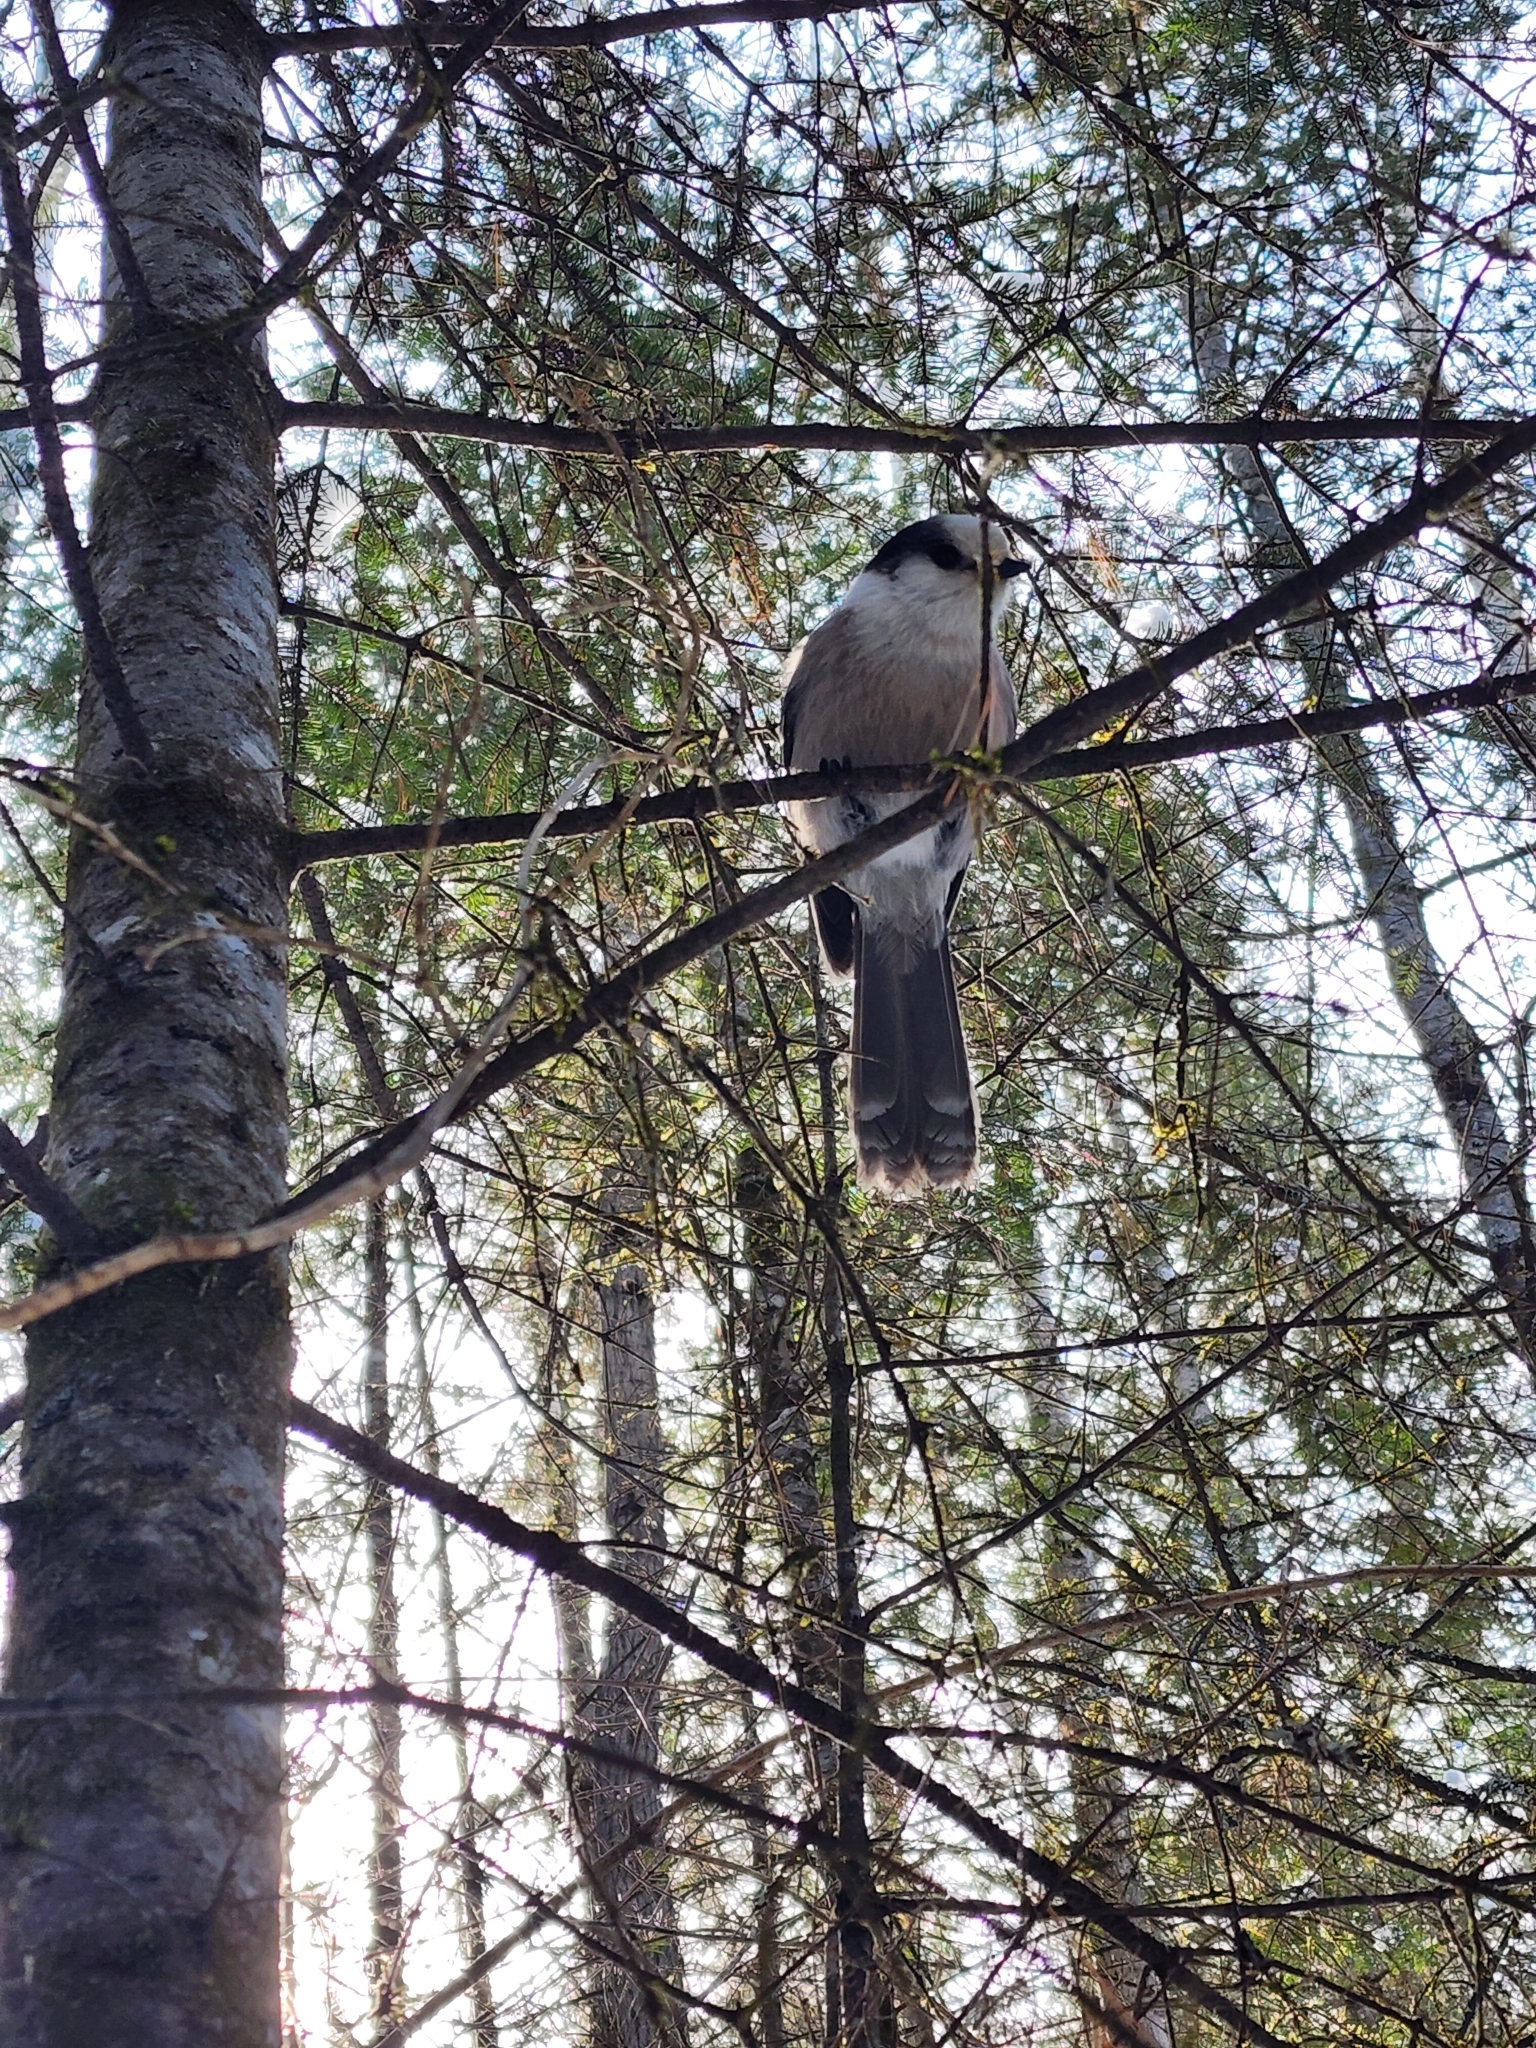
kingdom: Animalia
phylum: Chordata
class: Aves
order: Passeriformes
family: Corvidae
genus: Perisoreus
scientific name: Perisoreus canadensis
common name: Gray jay
